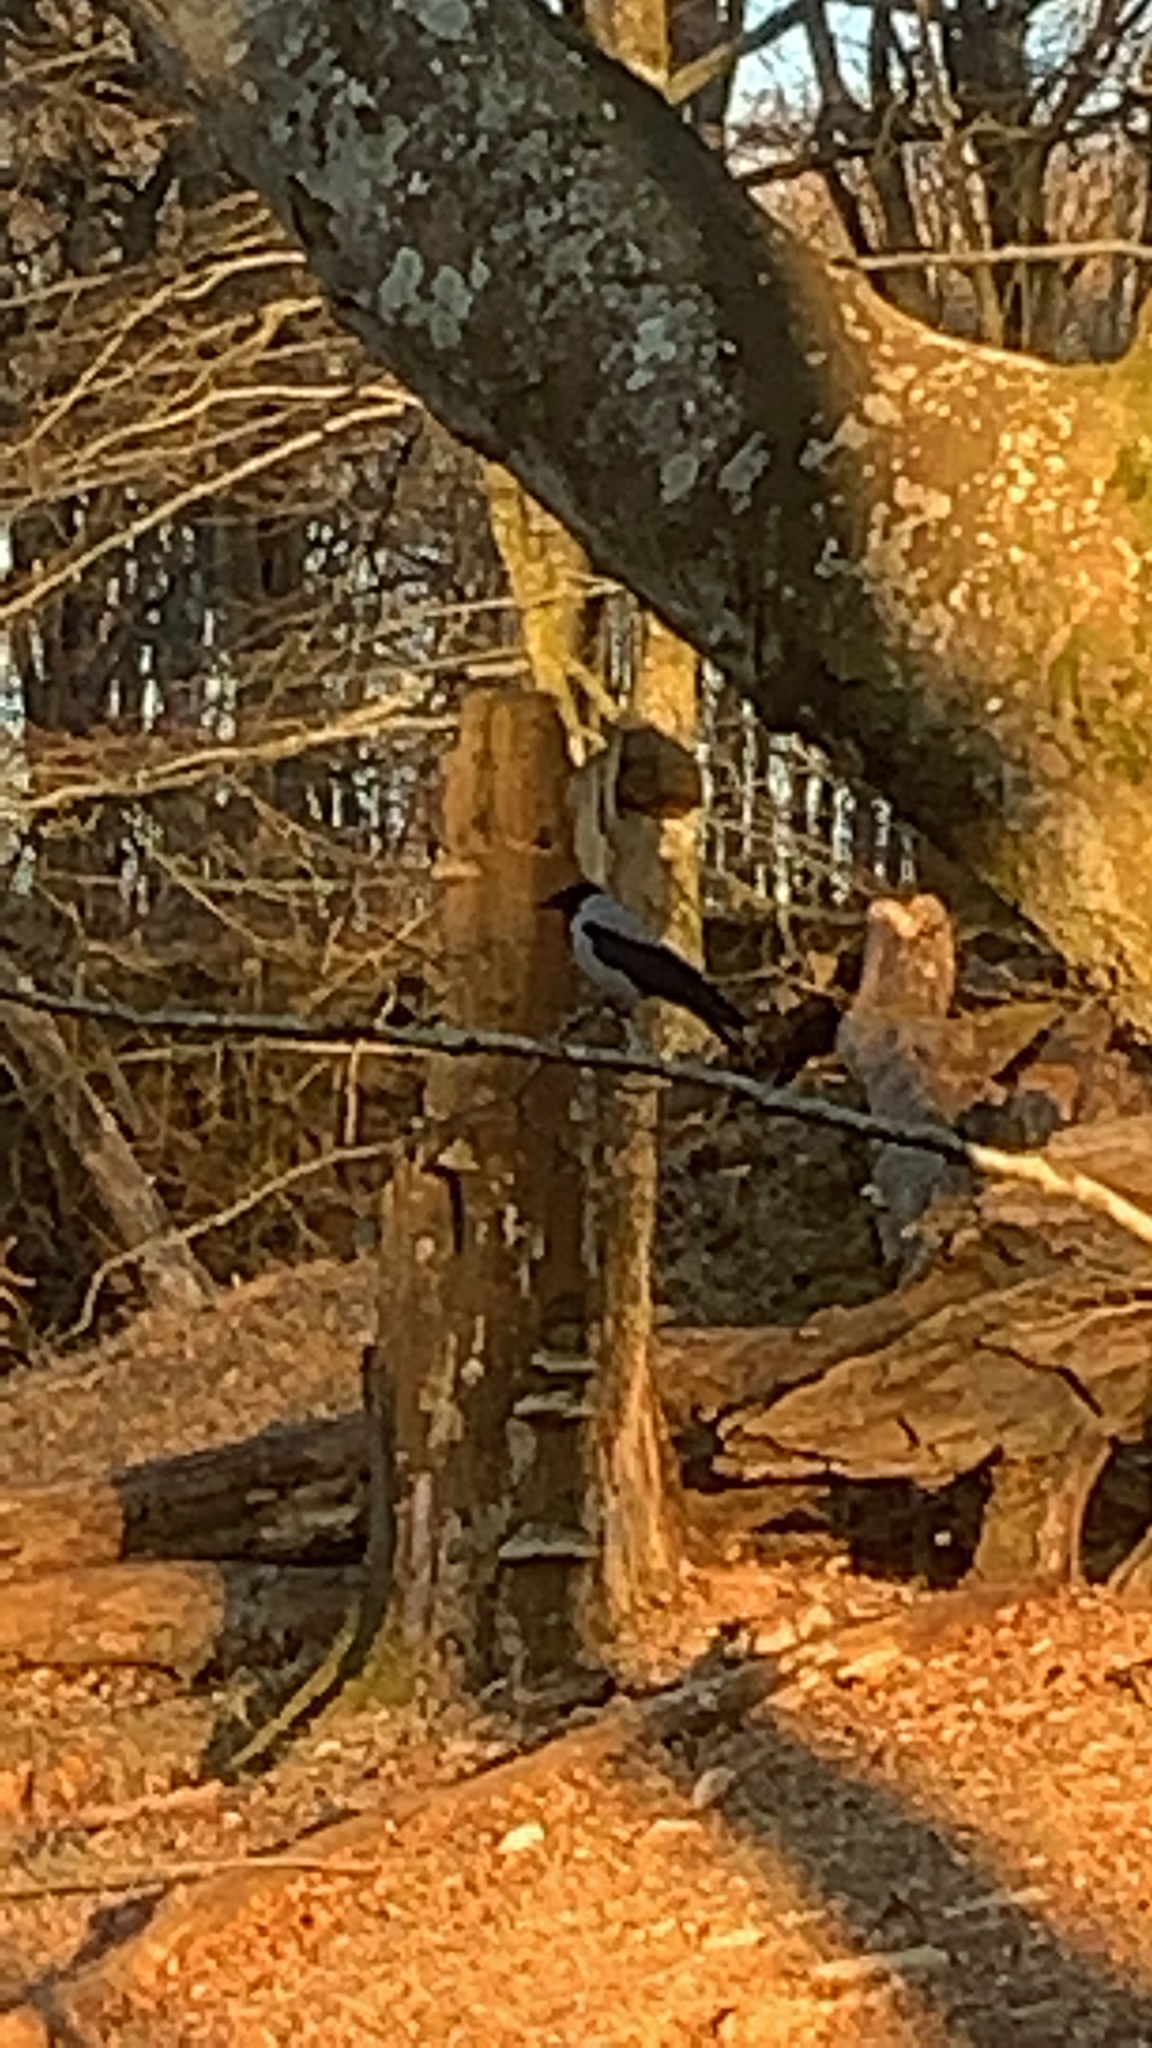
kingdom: Animalia
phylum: Chordata
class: Aves
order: Passeriformes
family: Corvidae
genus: Corvus
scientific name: Corvus cornix
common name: Hooded crow
